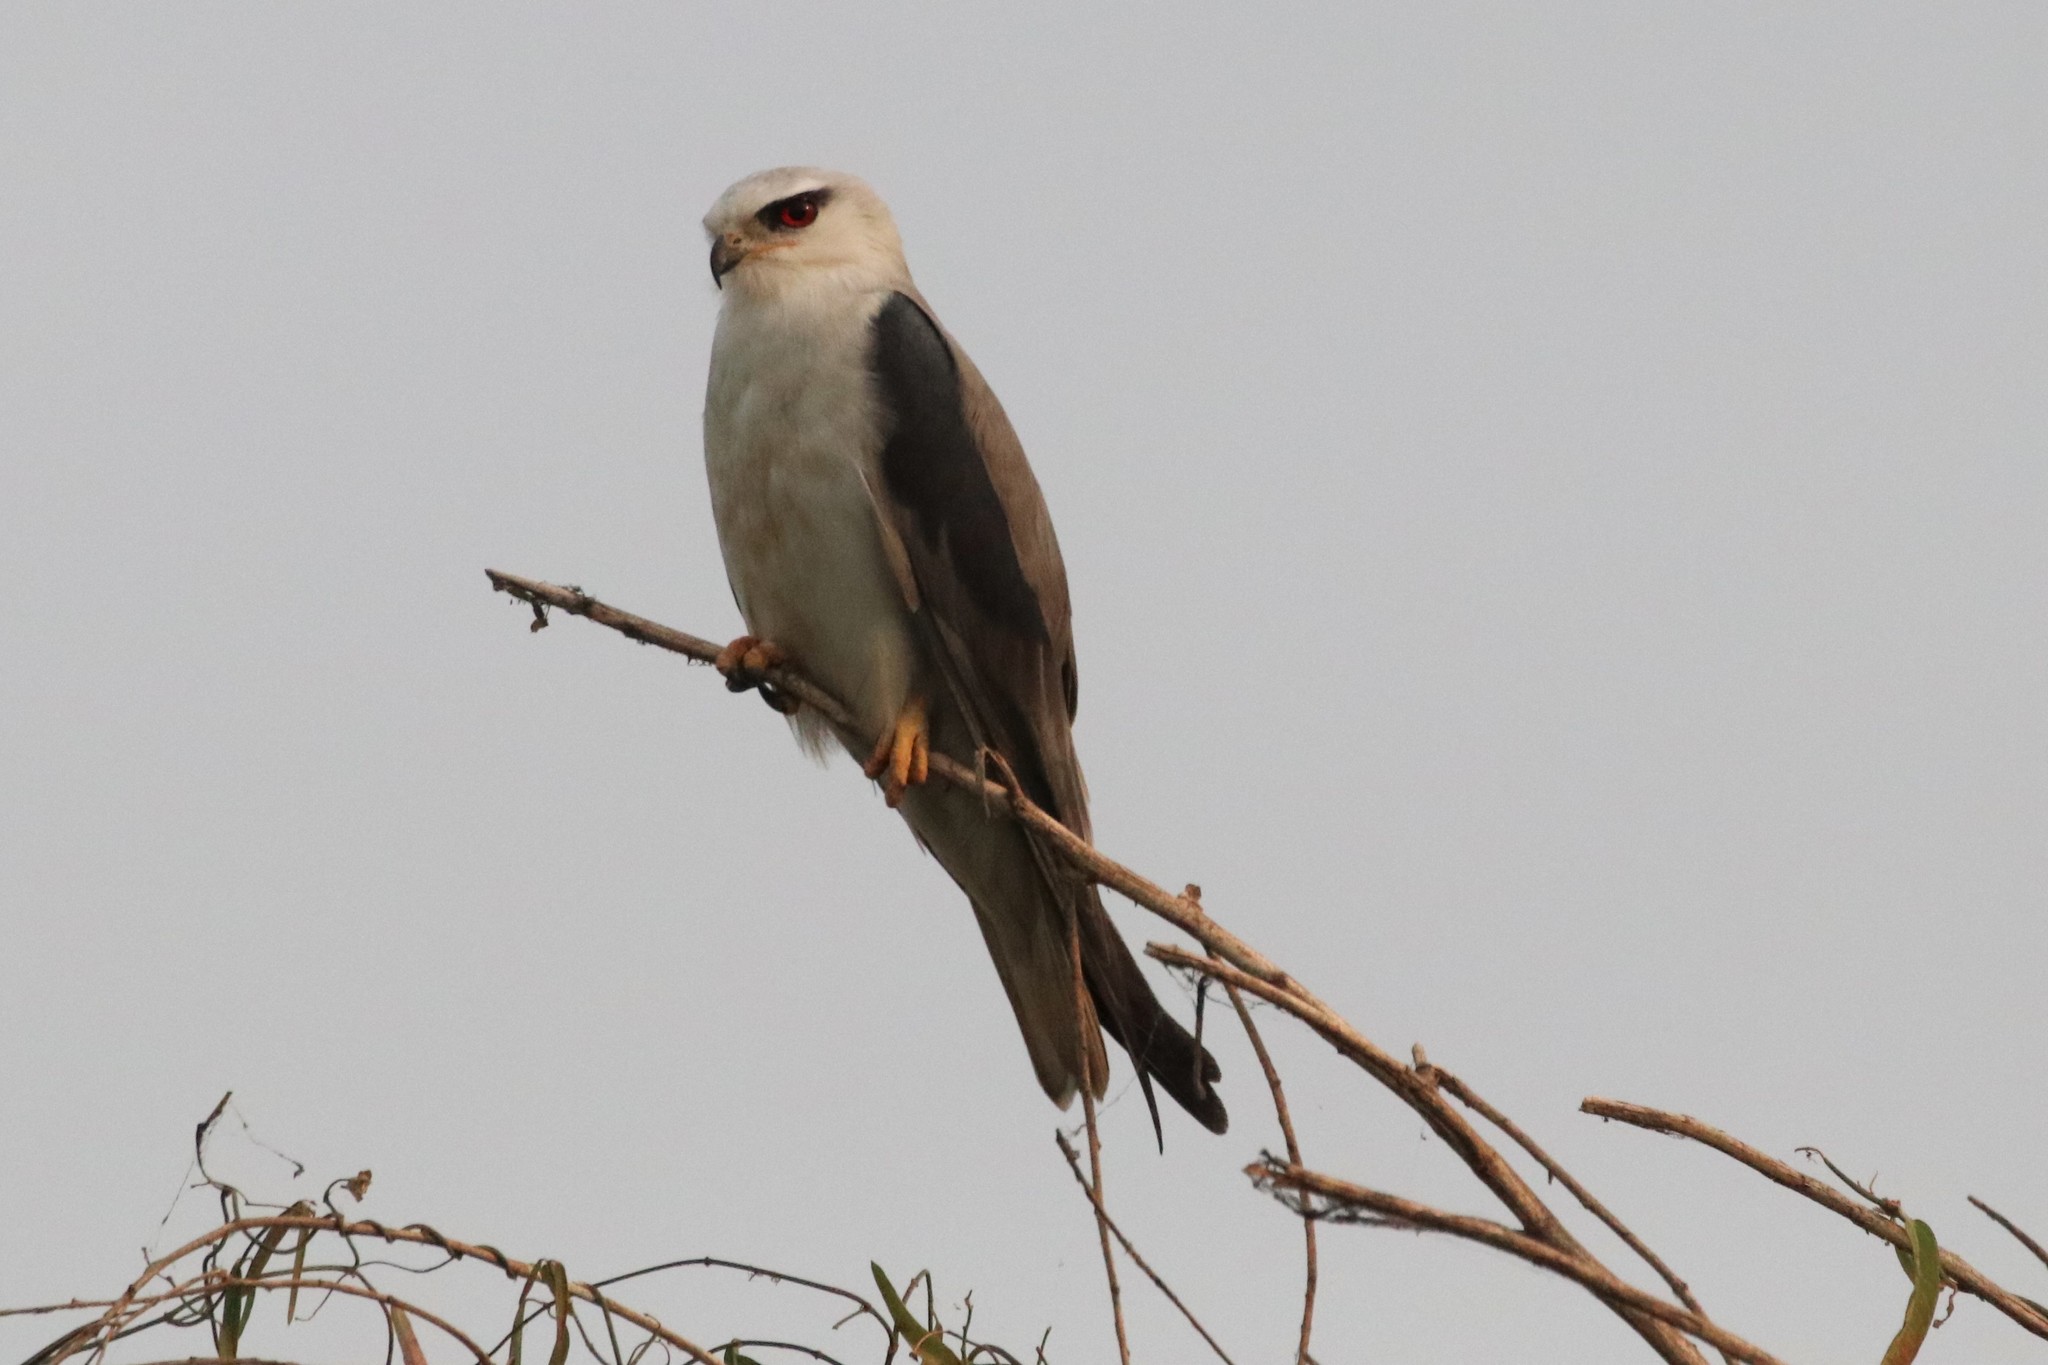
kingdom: Animalia
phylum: Chordata
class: Aves
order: Accipitriformes
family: Accipitridae
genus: Elanus
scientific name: Elanus caeruleus
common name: Black-winged kite
